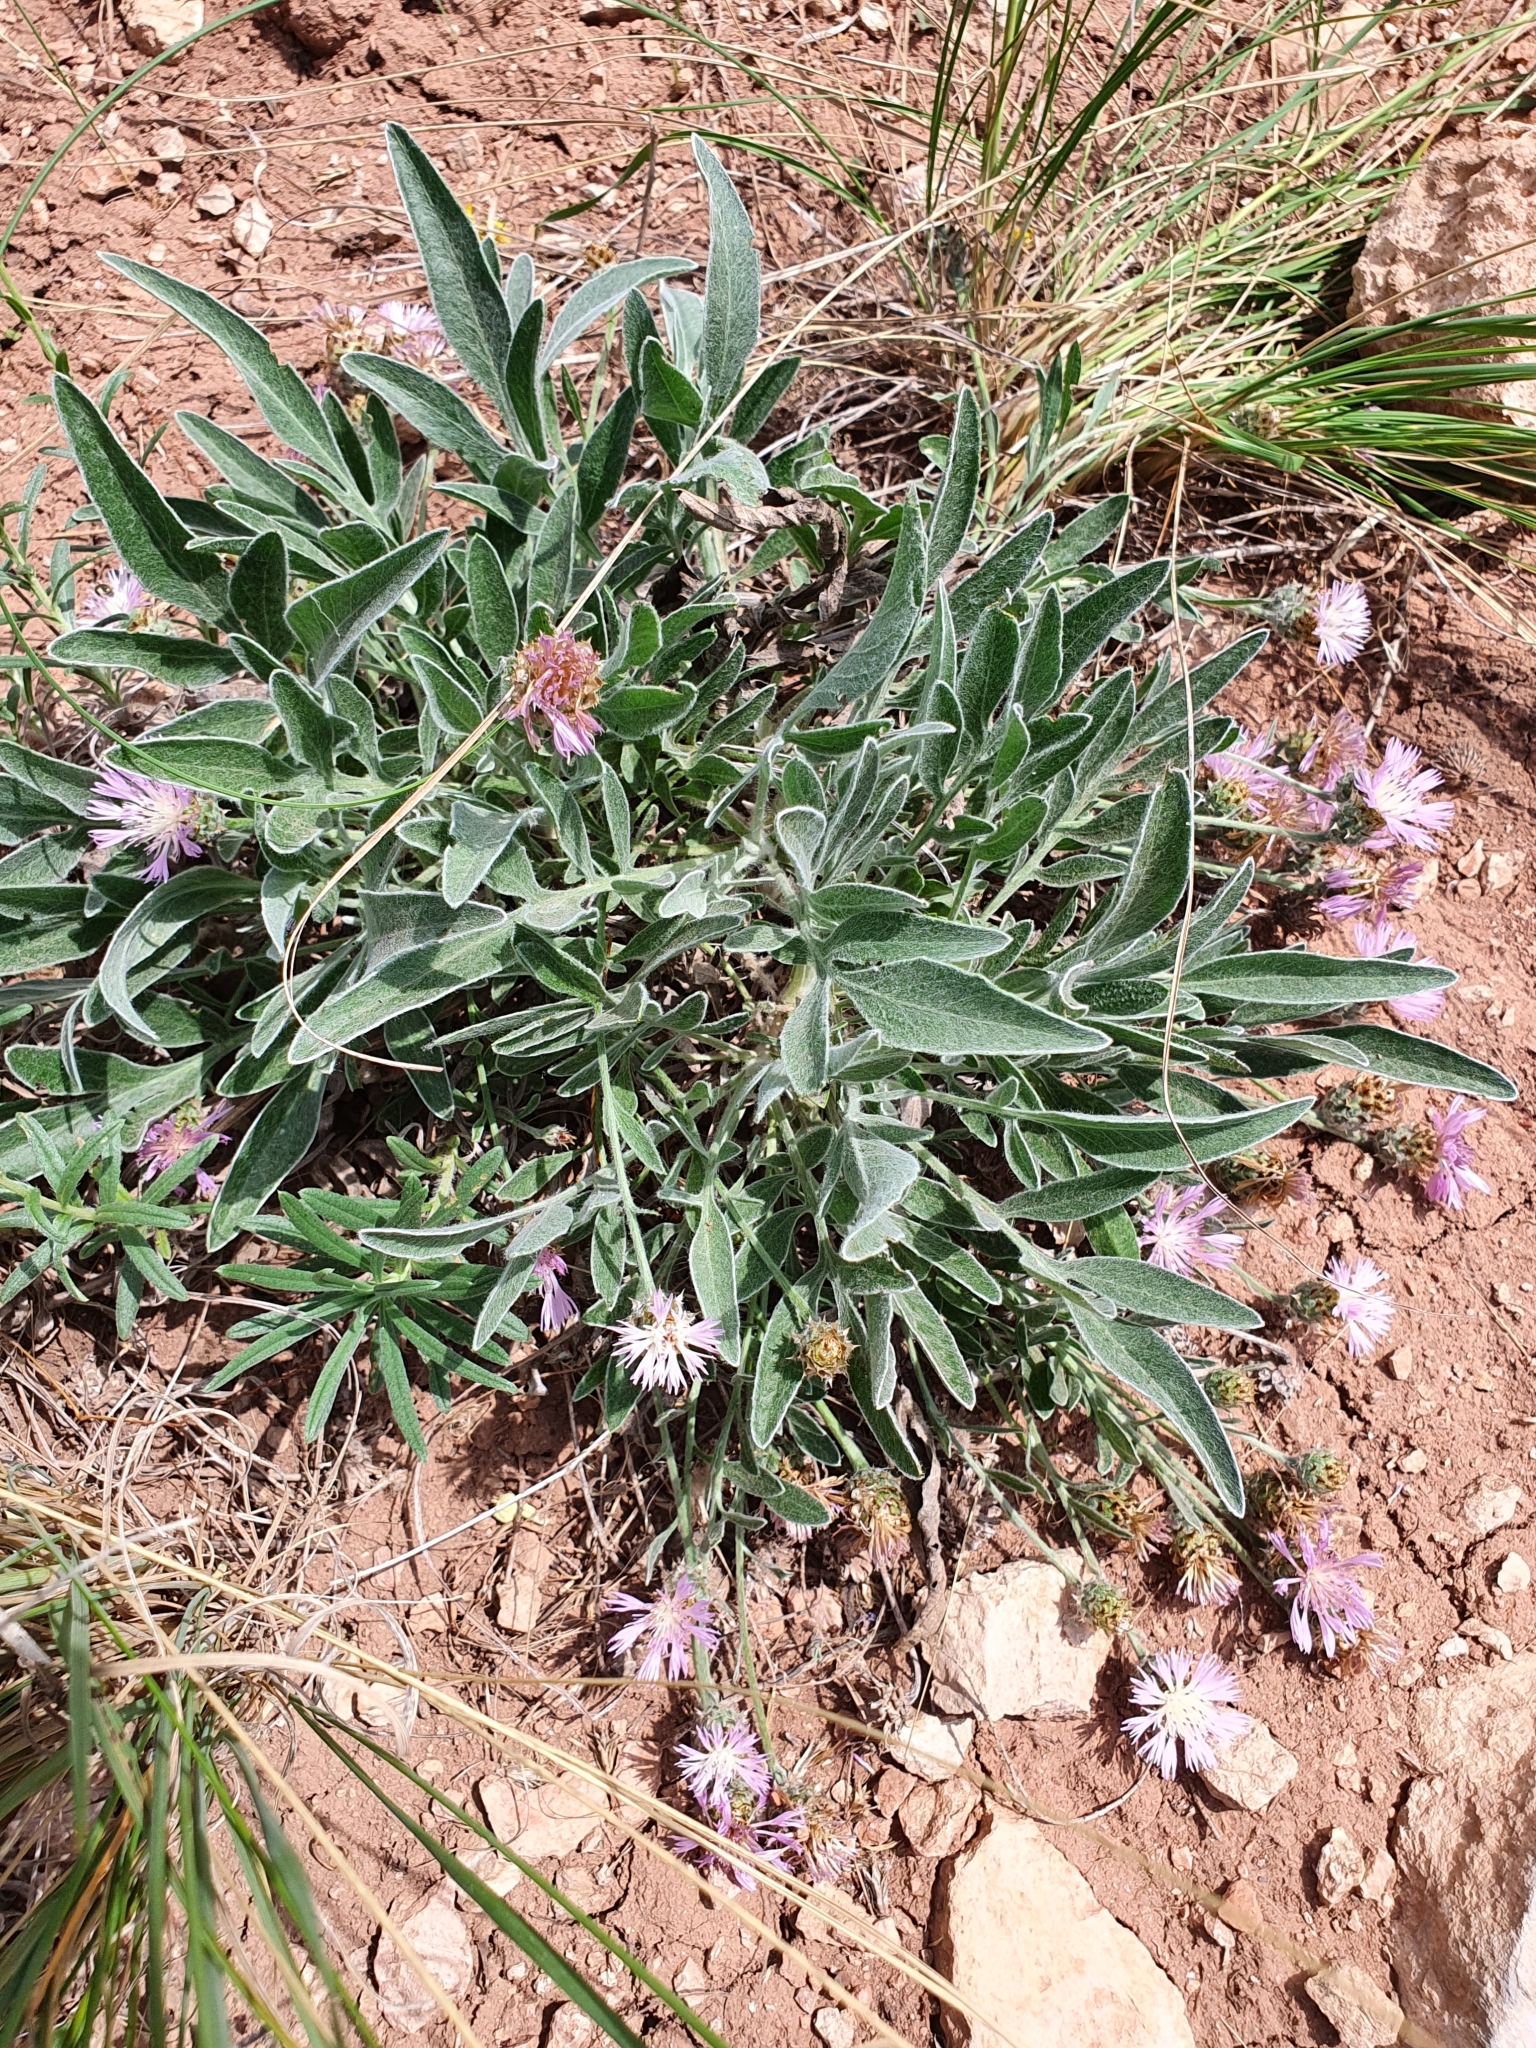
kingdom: Plantae
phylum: Tracheophyta
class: Magnoliopsida
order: Asterales
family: Asteraceae
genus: Psephellus
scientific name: Psephellus marschallianus
